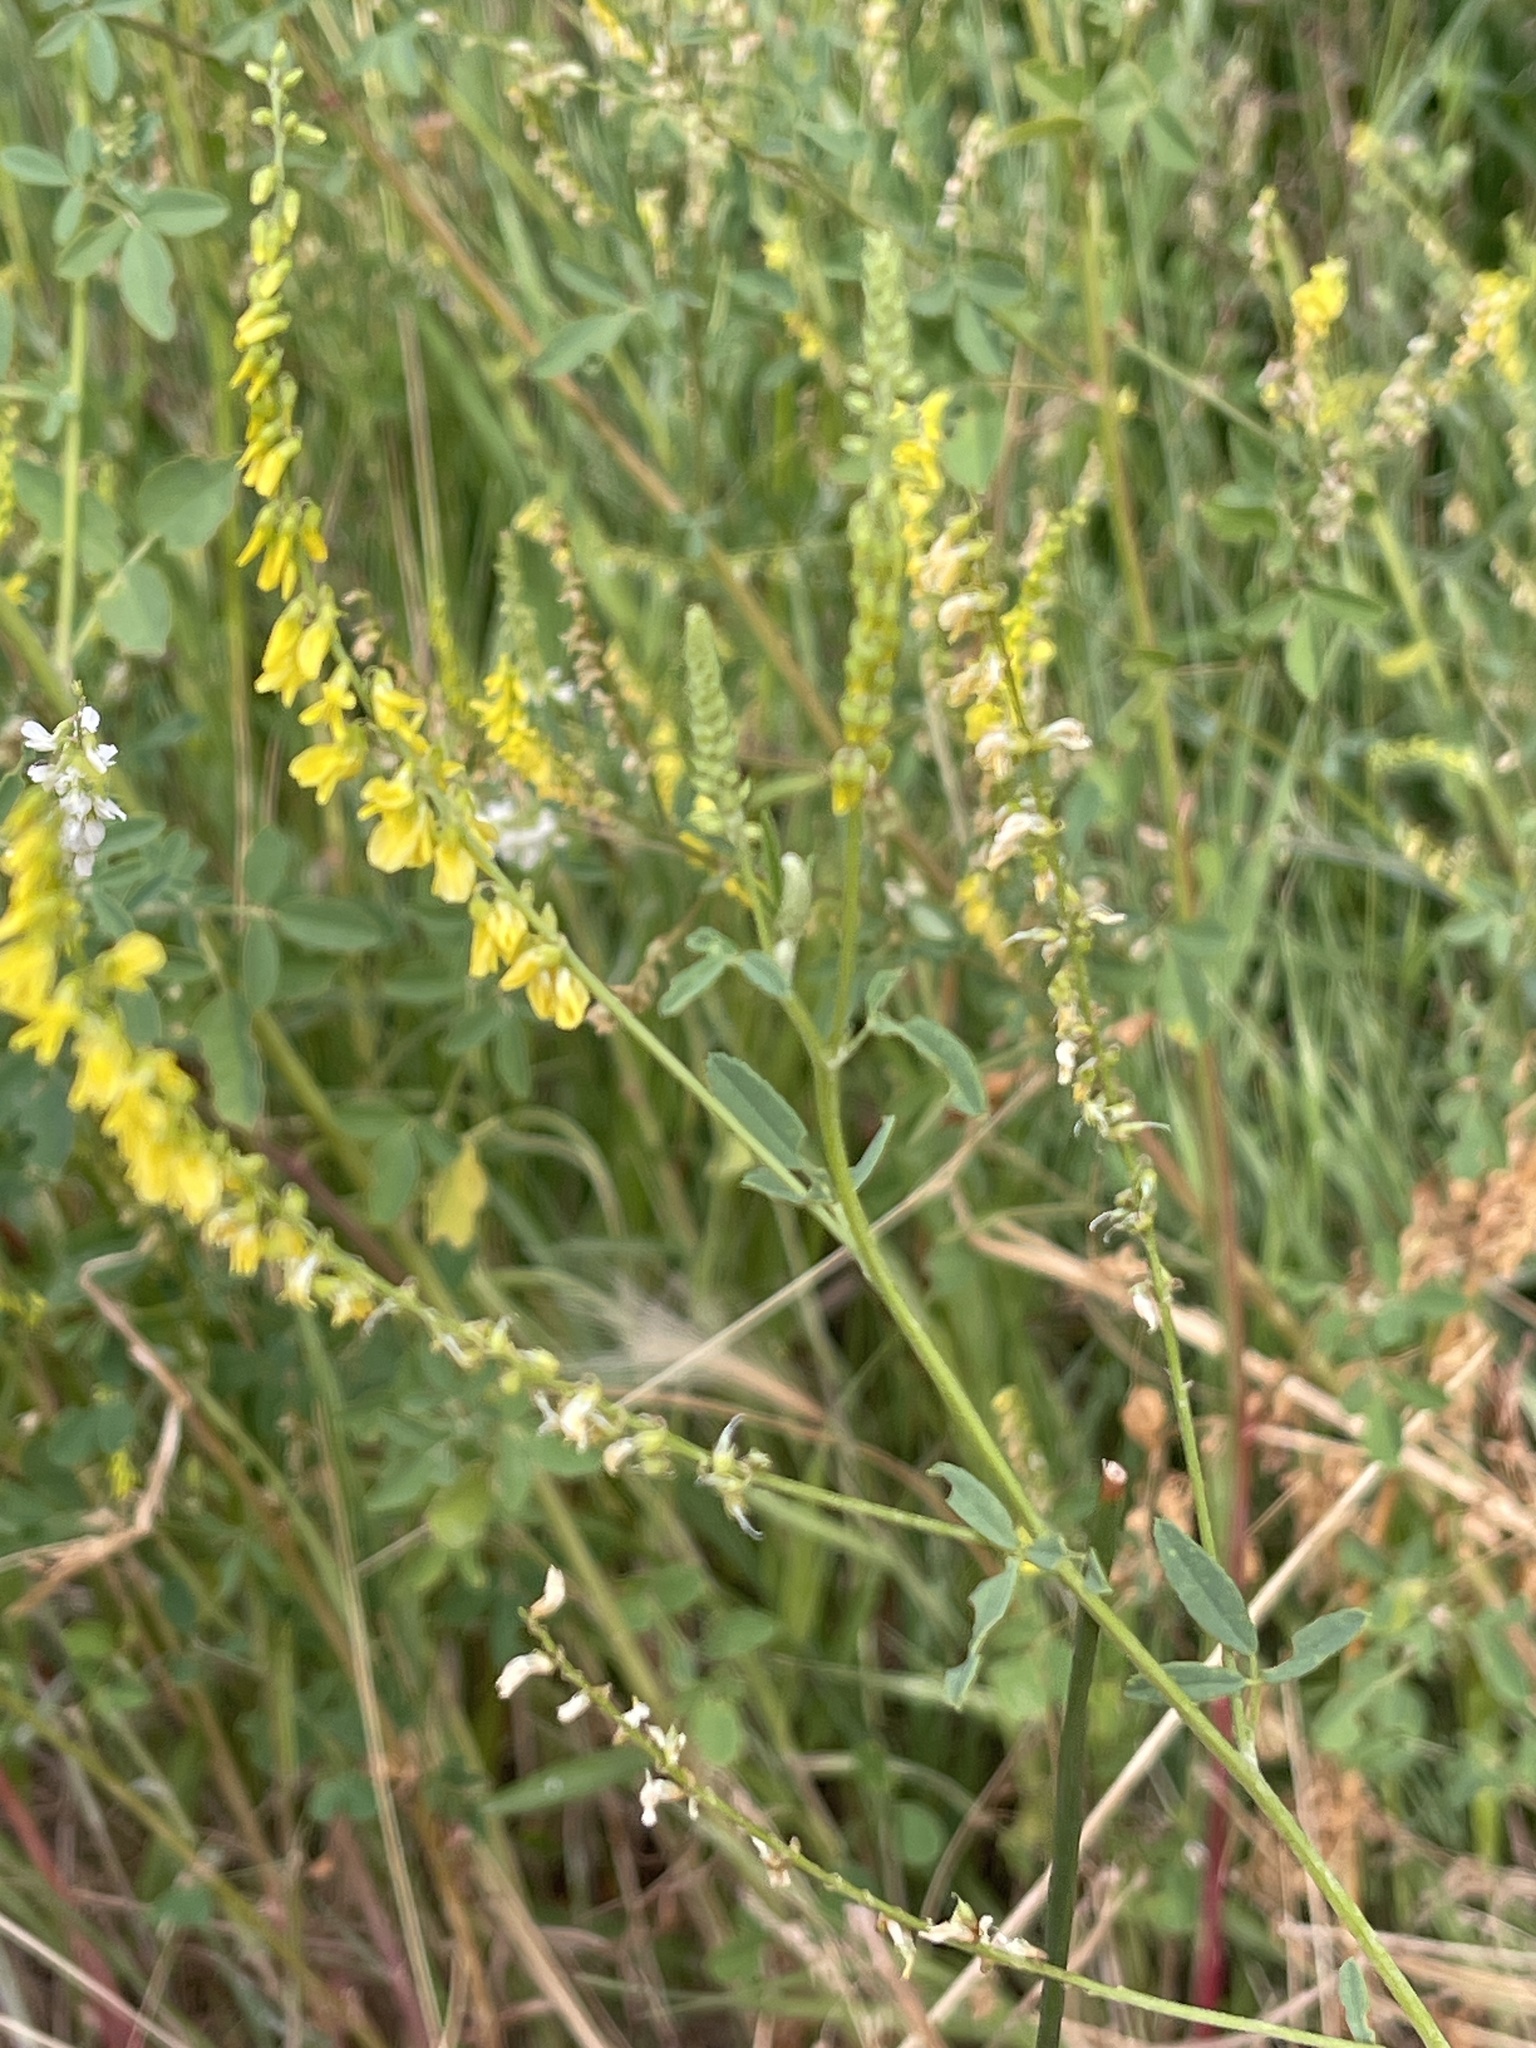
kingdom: Plantae
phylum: Tracheophyta
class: Magnoliopsida
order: Fabales
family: Fabaceae
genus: Melilotus
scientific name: Melilotus officinalis
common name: Sweetclover
